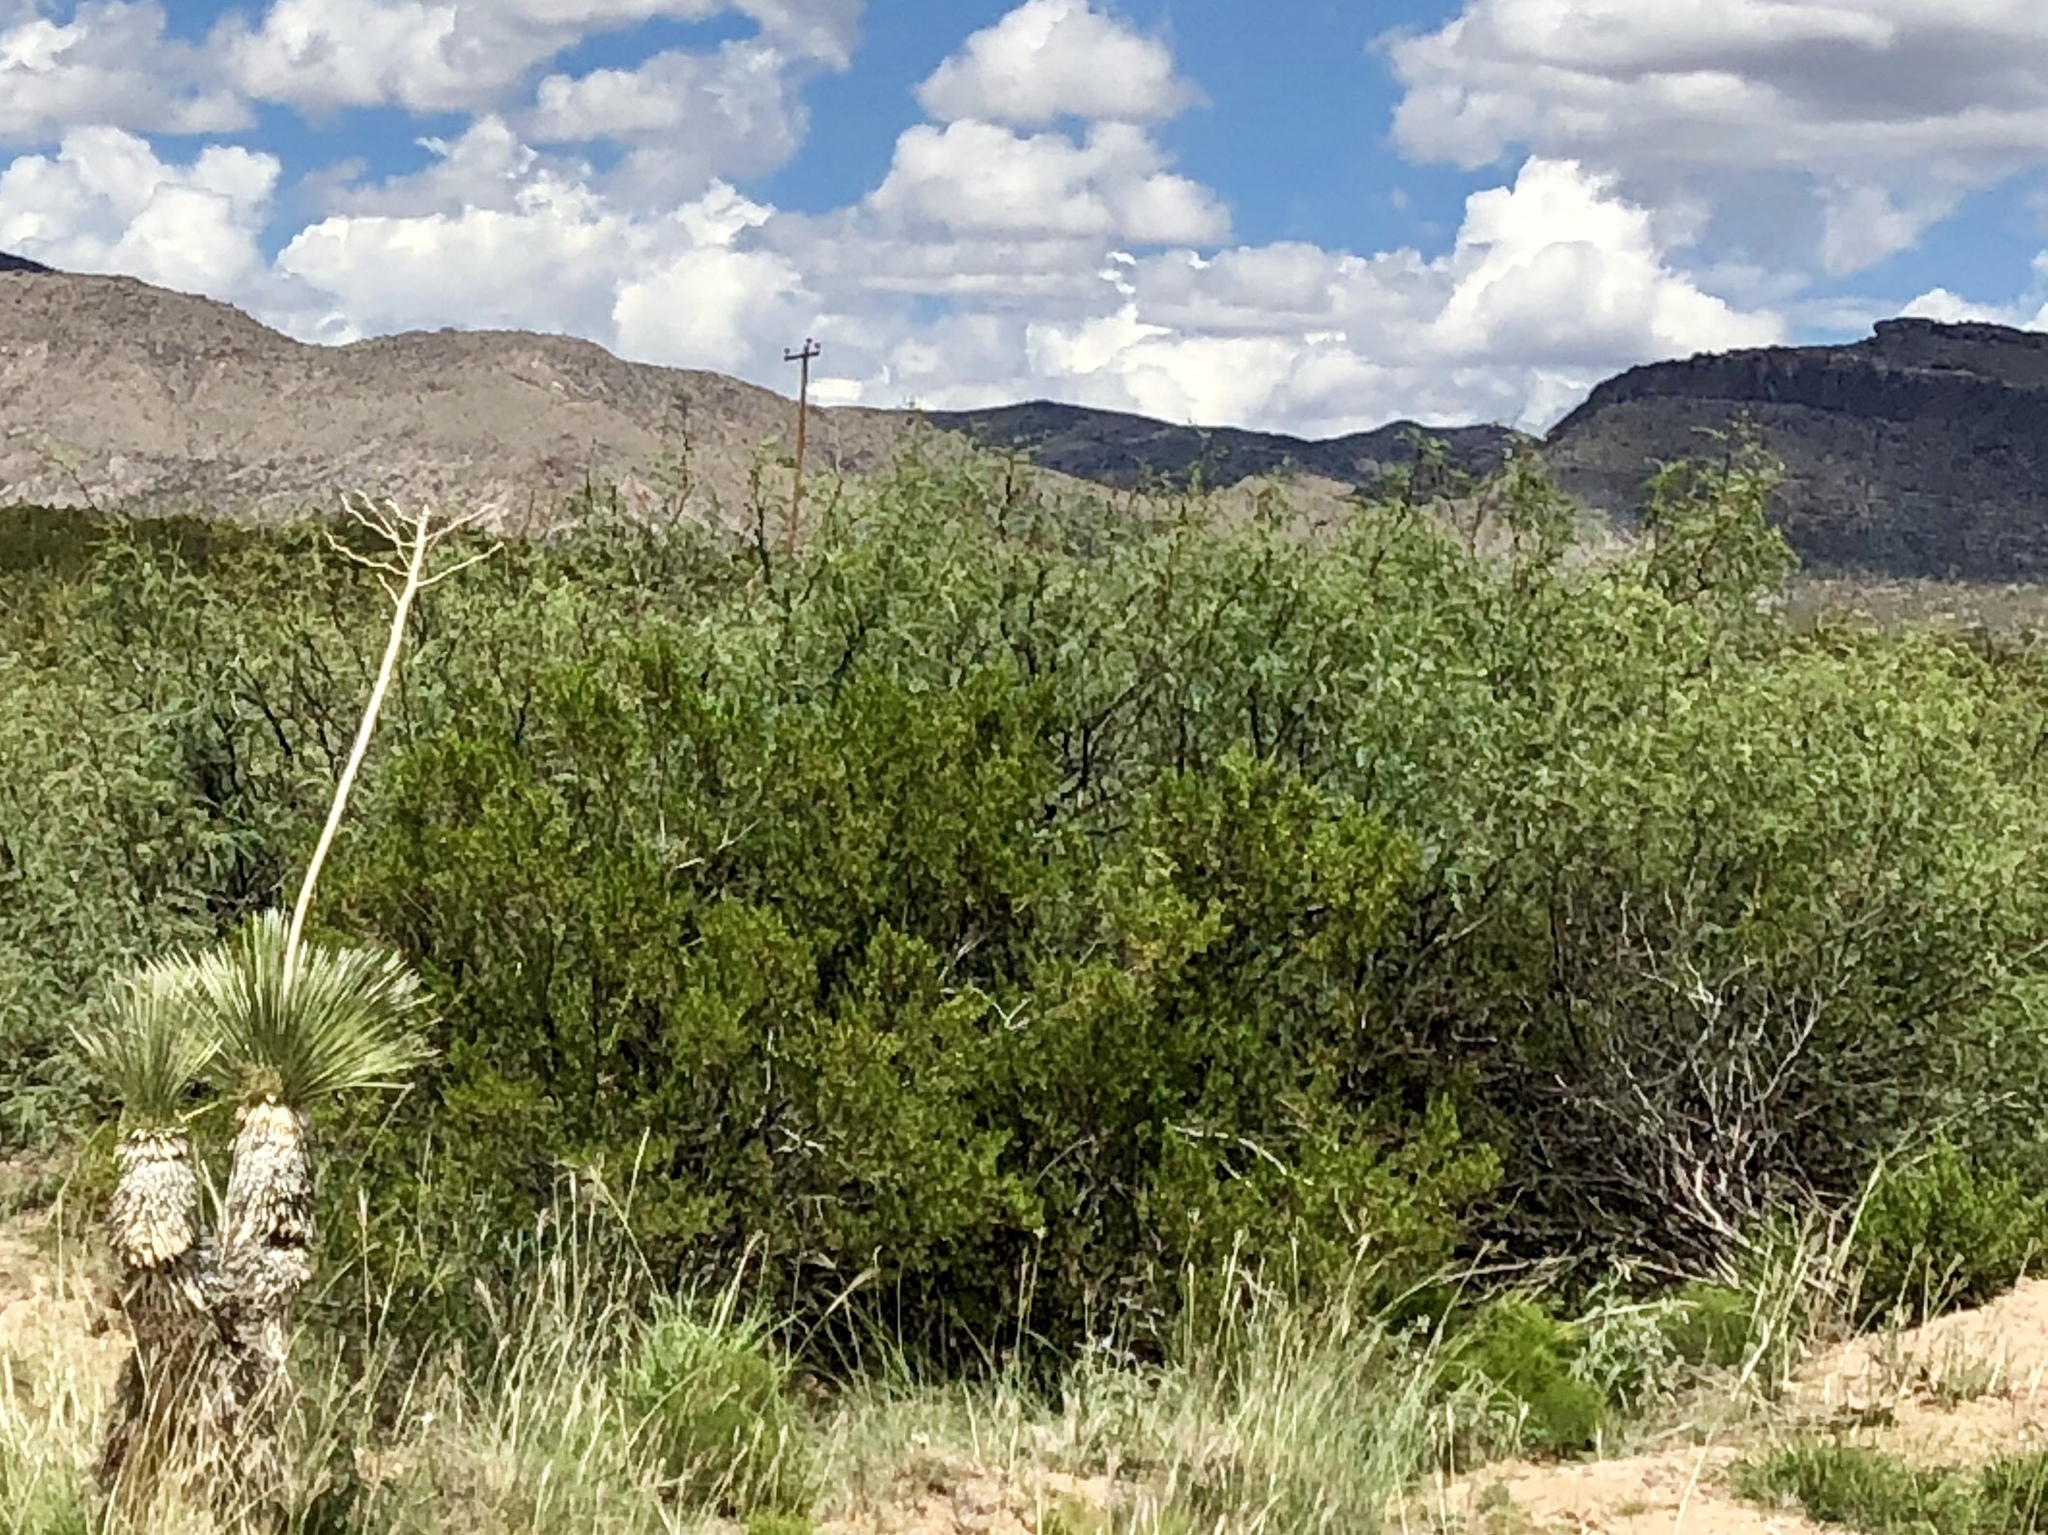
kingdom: Plantae
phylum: Tracheophyta
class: Magnoliopsida
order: Zygophyllales
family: Zygophyllaceae
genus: Larrea
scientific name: Larrea tridentata
